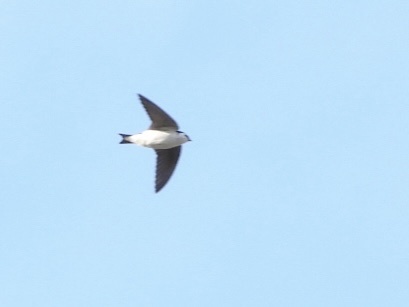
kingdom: Animalia
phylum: Chordata
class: Aves
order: Passeriformes
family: Hirundinidae
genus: Tachycineta
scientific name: Tachycineta thalassina
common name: Violet-green swallow
